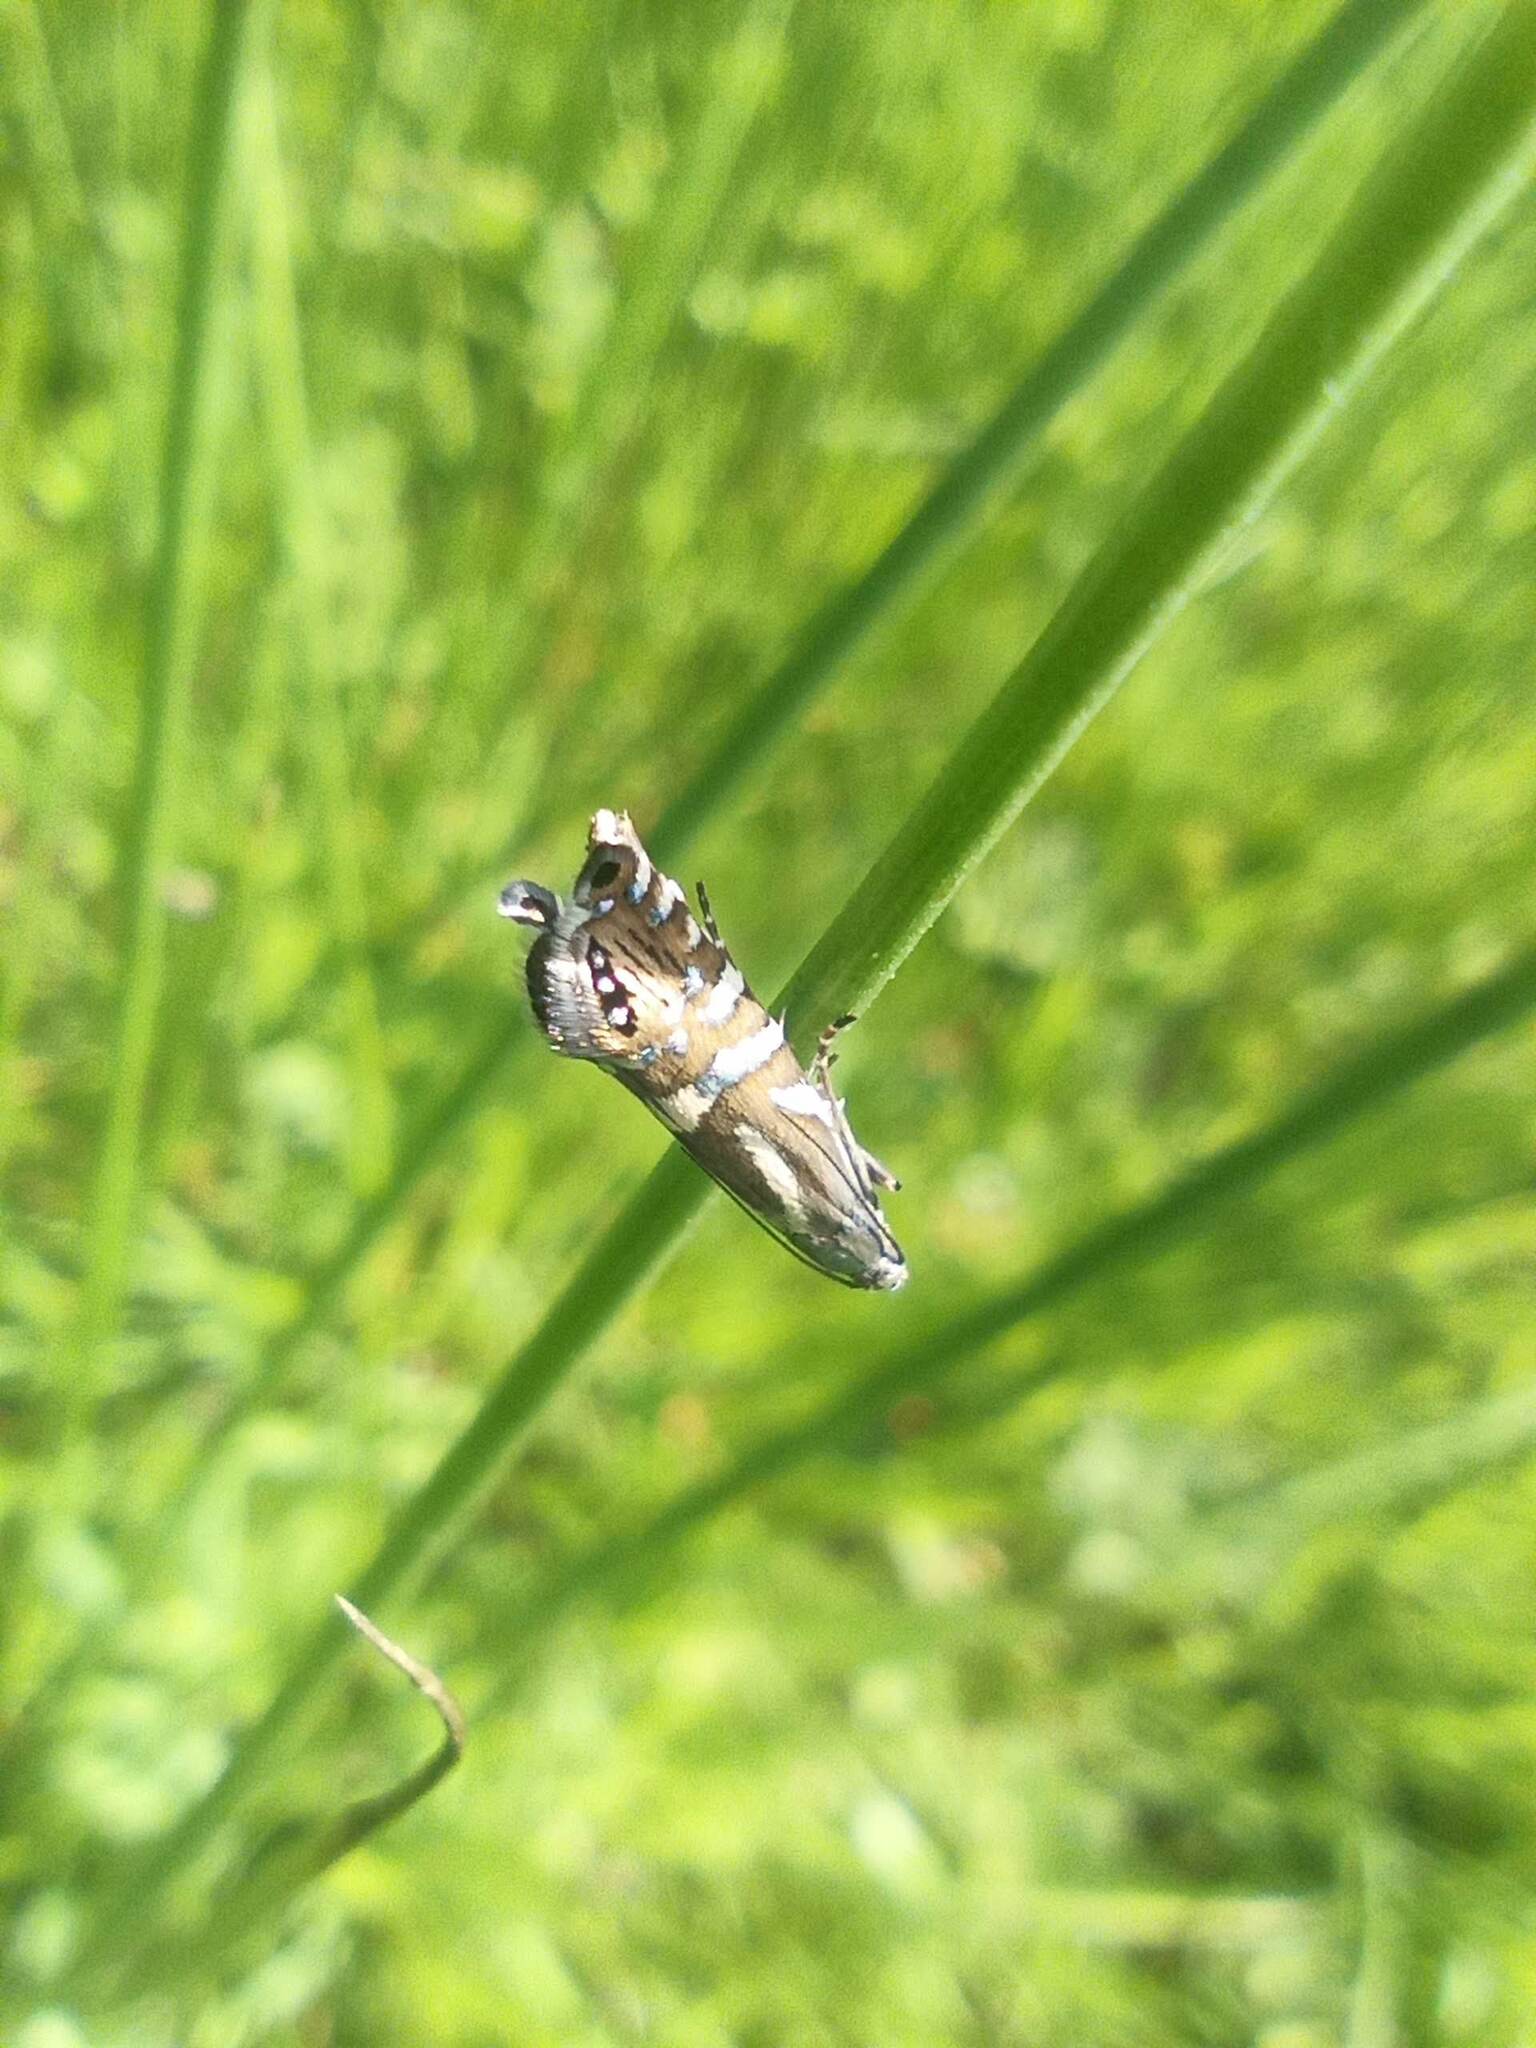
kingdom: Animalia
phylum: Arthropoda
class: Insecta
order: Lepidoptera
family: Glyphipterigidae
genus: Glyphipterix
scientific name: Glyphipterix thrasonella
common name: Speckled fanner
